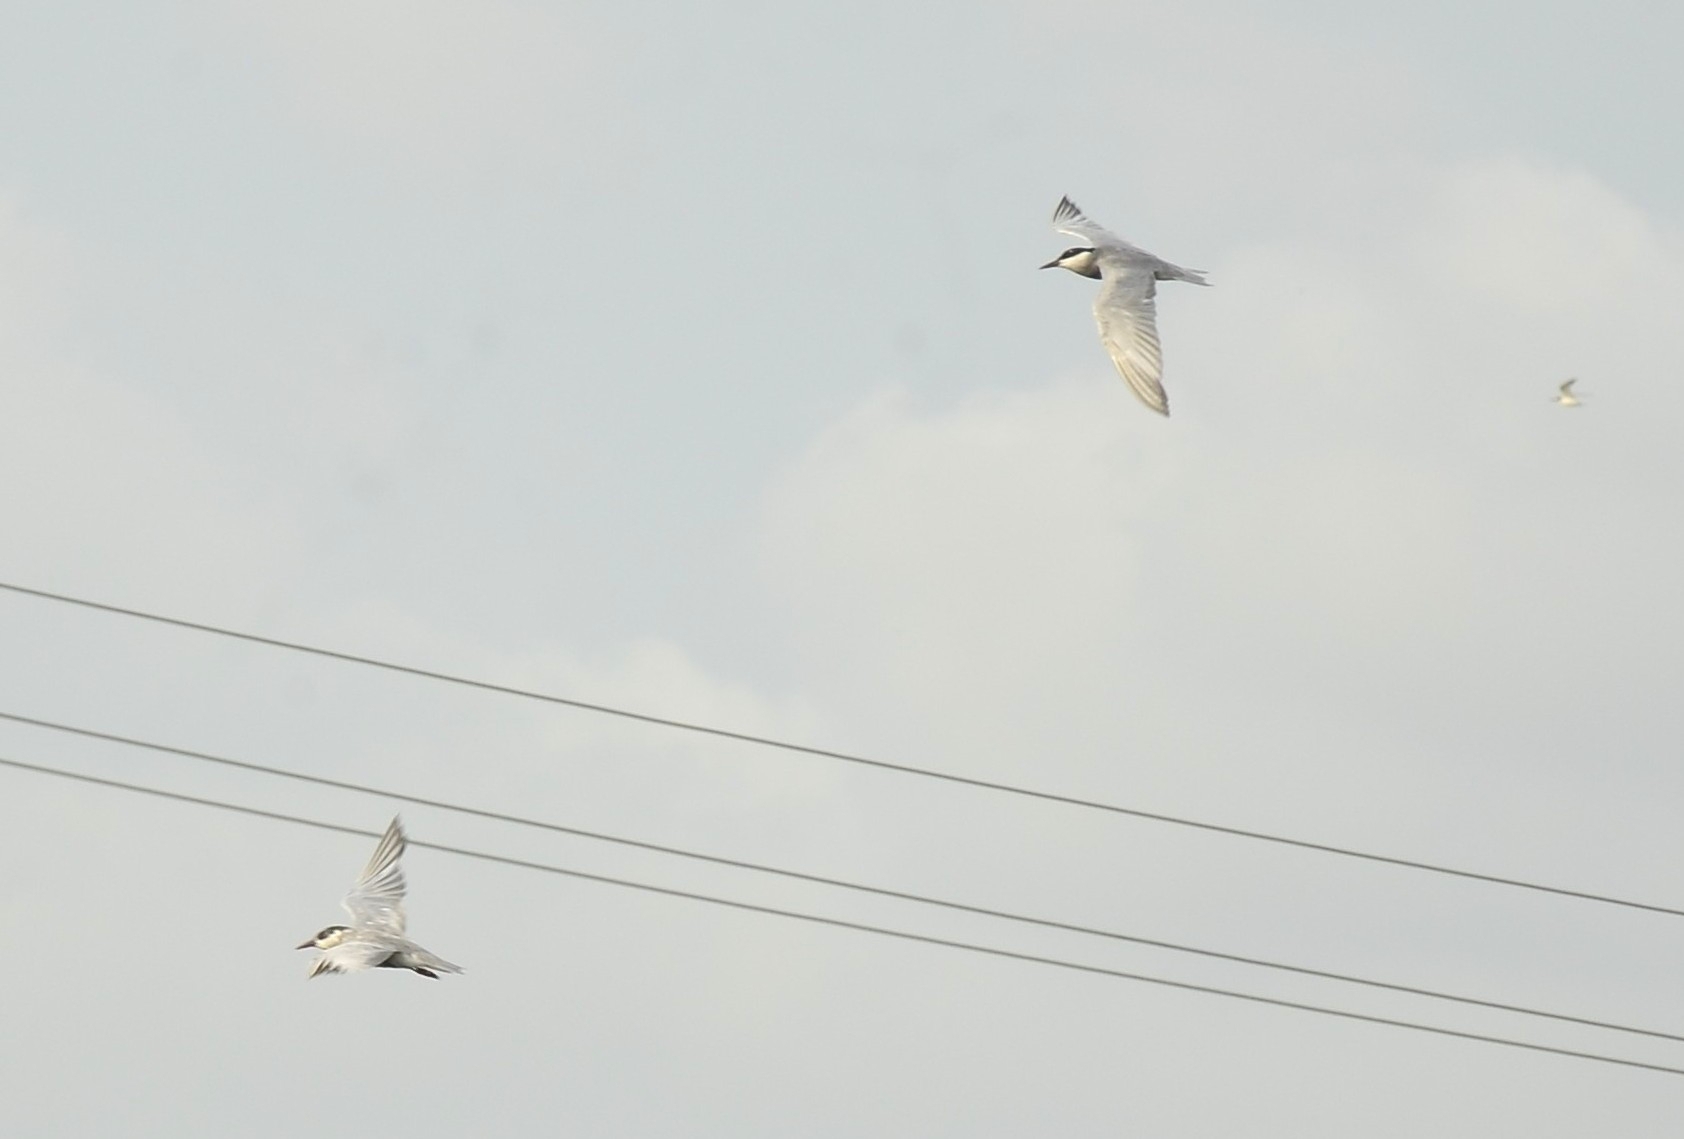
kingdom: Animalia
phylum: Chordata
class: Aves
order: Charadriiformes
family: Laridae
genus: Chlidonias
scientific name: Chlidonias hybrida
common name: Whiskered tern
